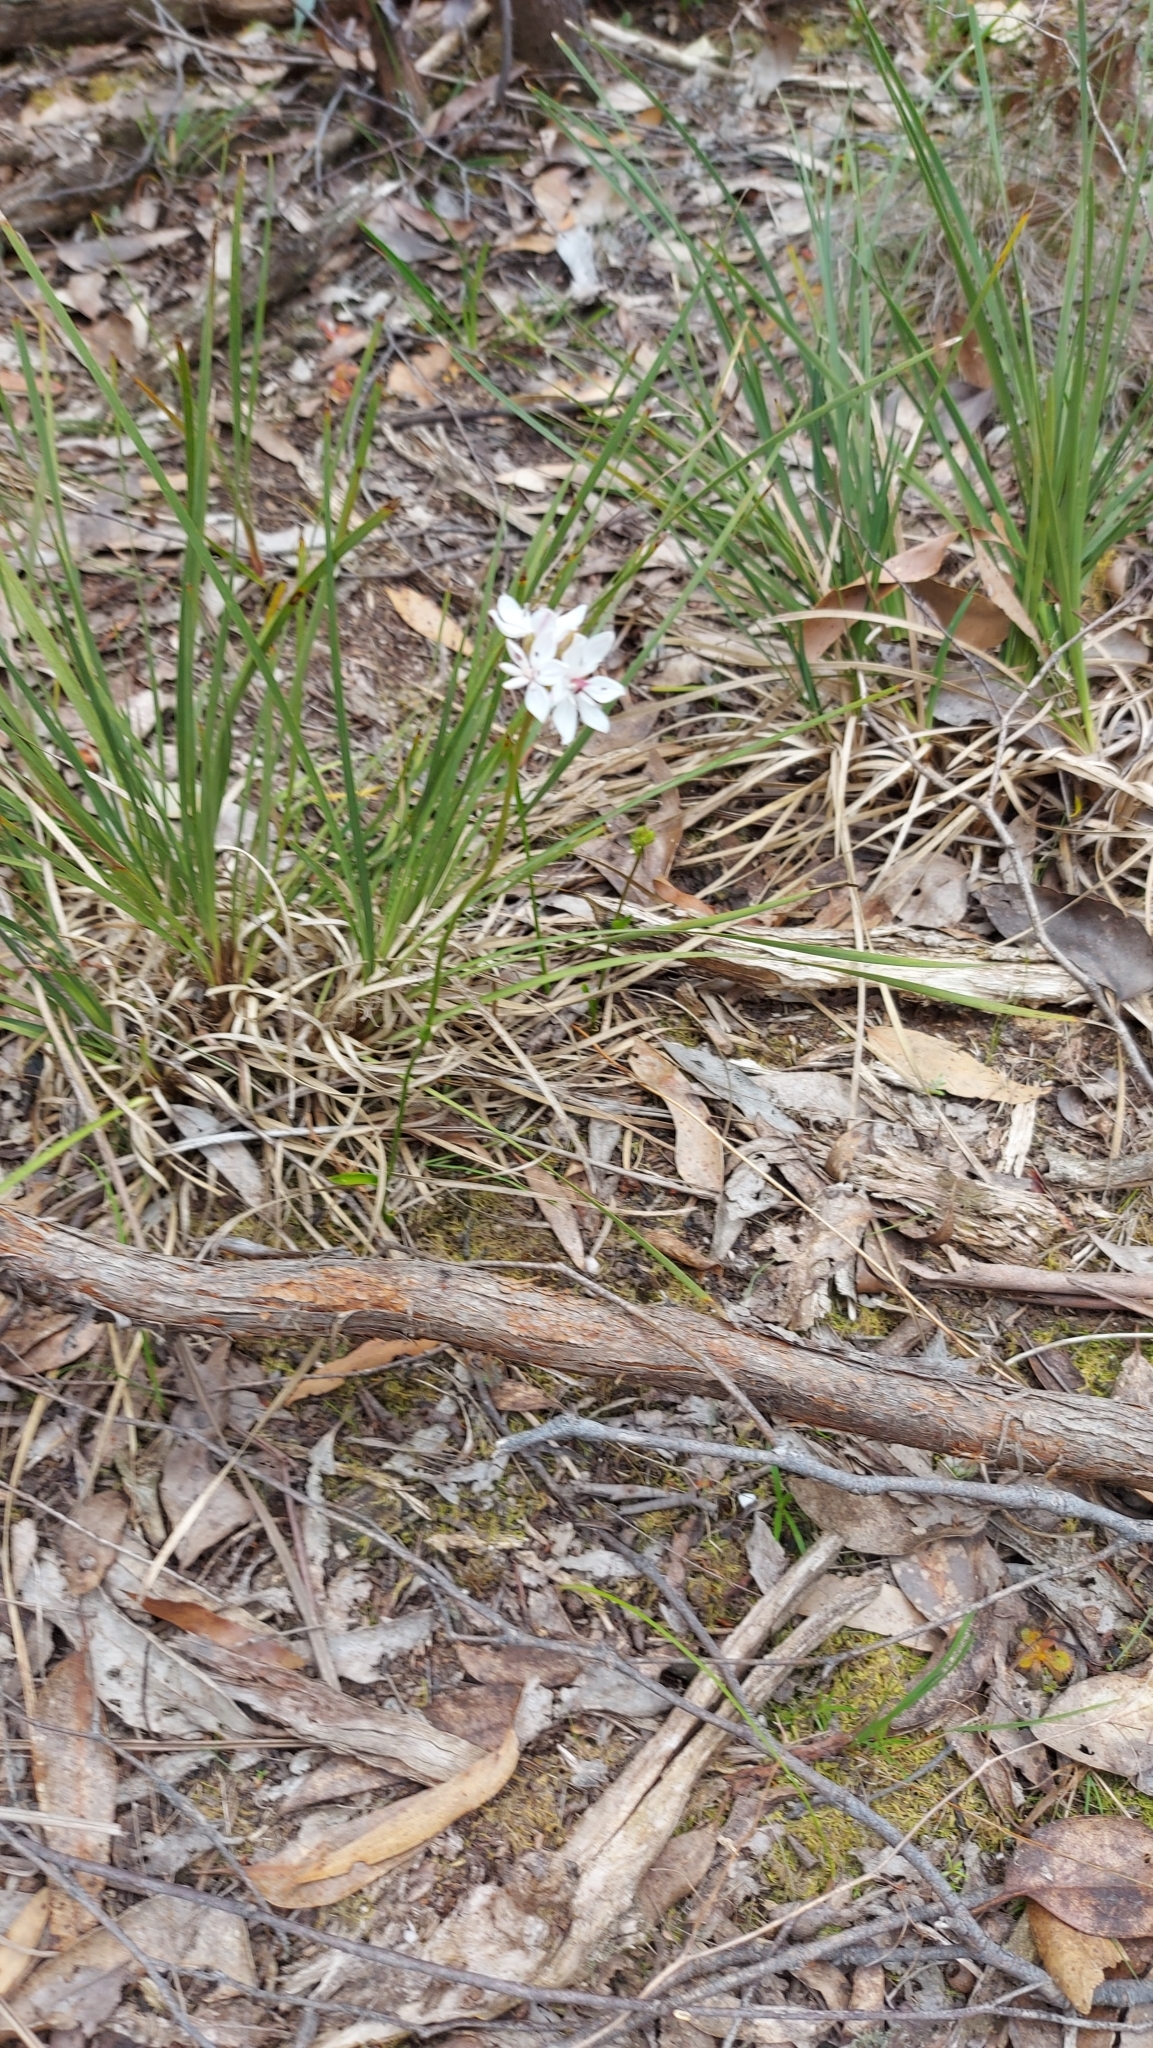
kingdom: Plantae
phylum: Tracheophyta
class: Liliopsida
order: Liliales
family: Colchicaceae
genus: Burchardia
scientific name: Burchardia umbellata
